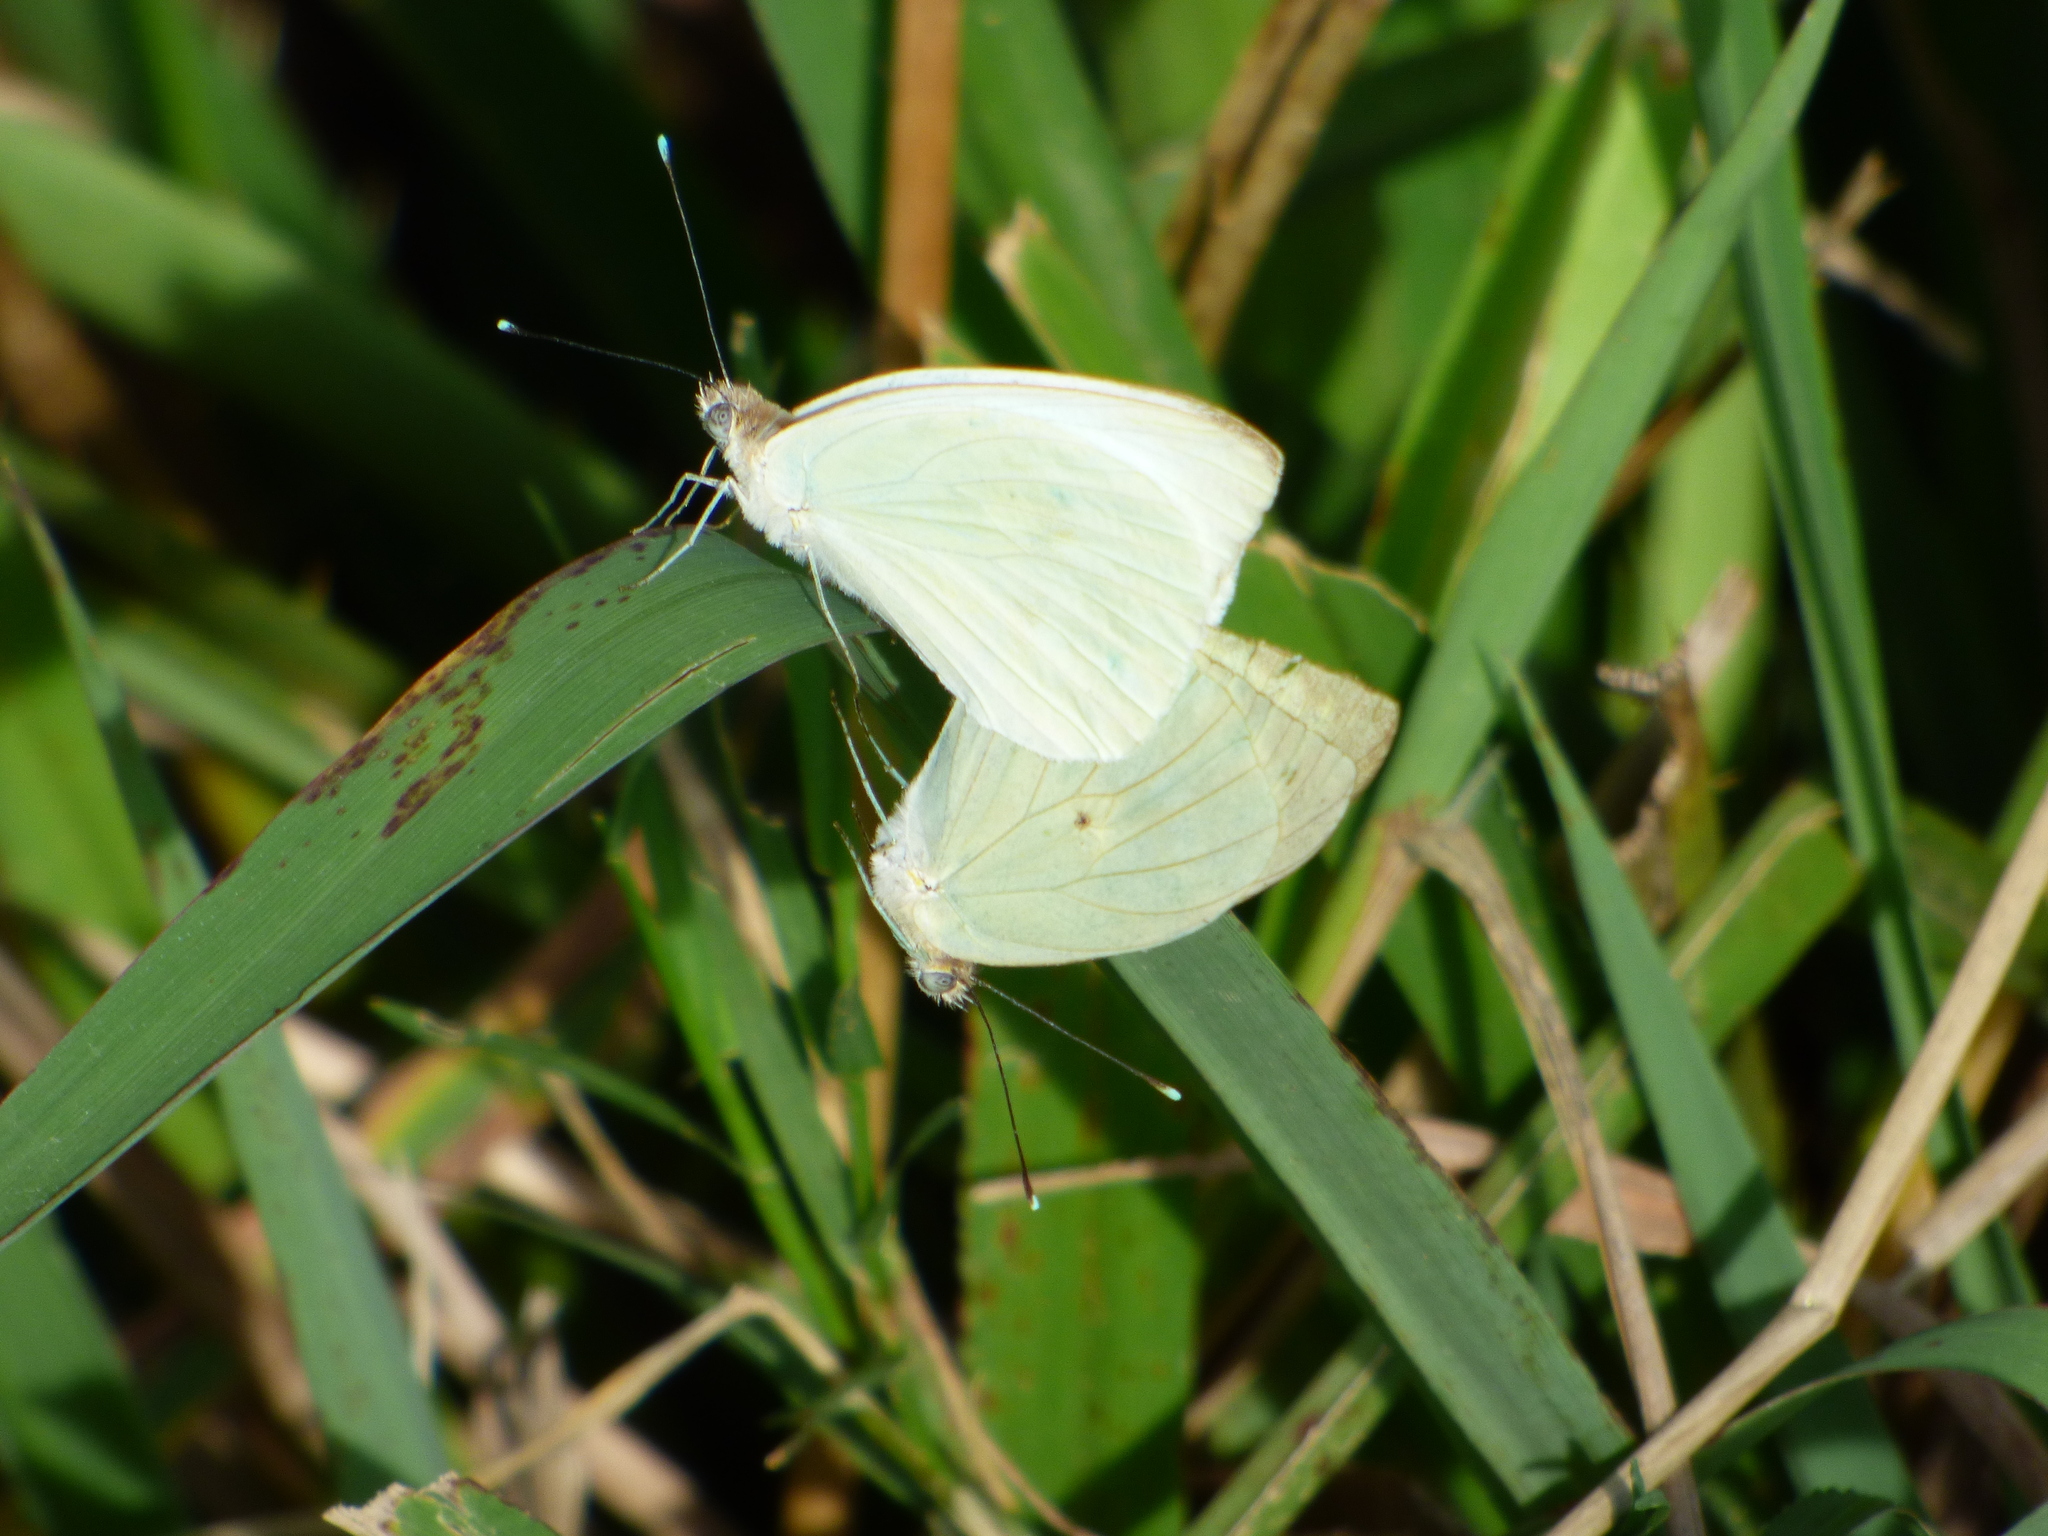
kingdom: Animalia
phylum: Arthropoda
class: Insecta
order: Lepidoptera
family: Pieridae
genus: Ascia
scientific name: Ascia monuste
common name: Great southern white
